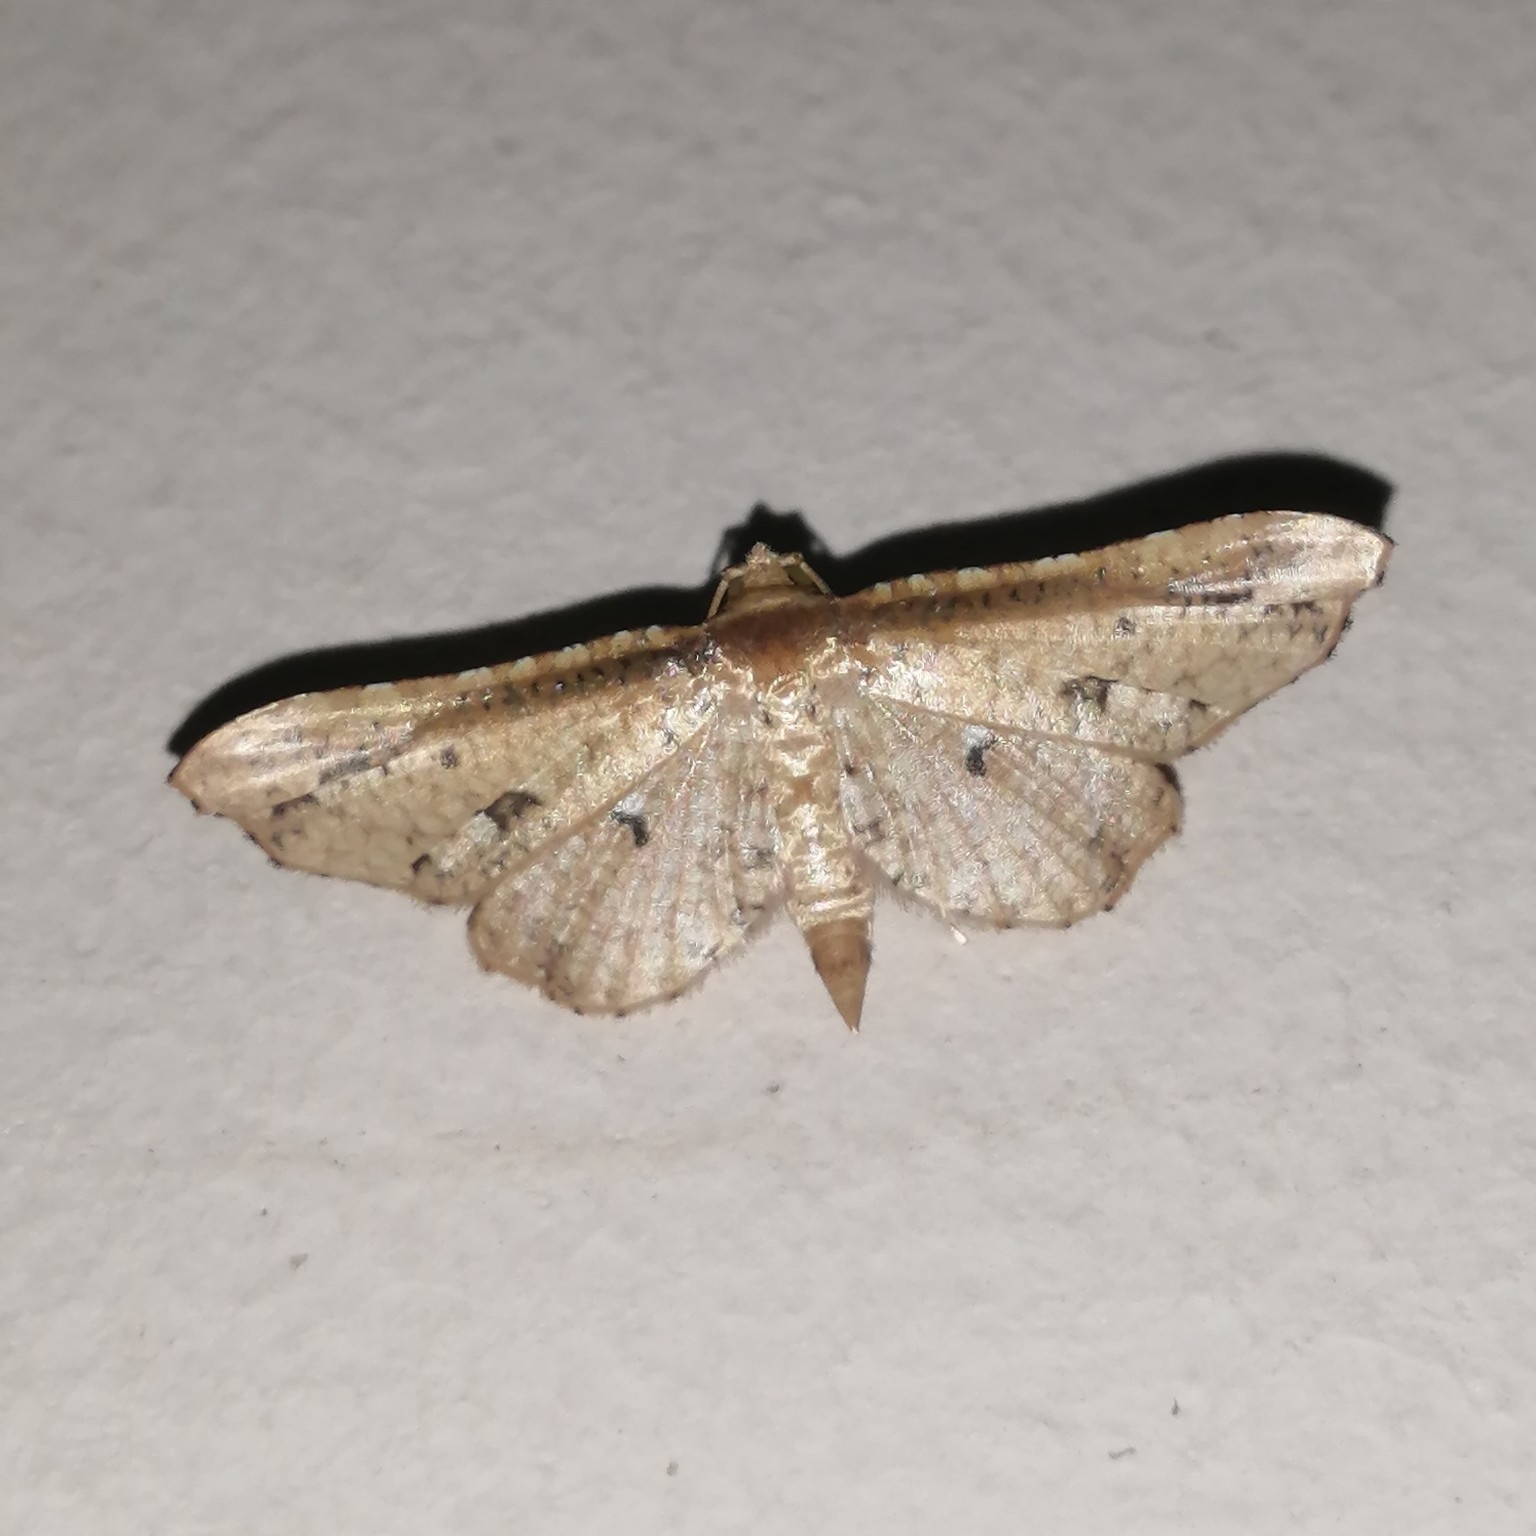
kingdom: Animalia
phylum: Arthropoda
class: Insecta
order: Lepidoptera
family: Thyrididae
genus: Pharambara
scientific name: Pharambara splendida
